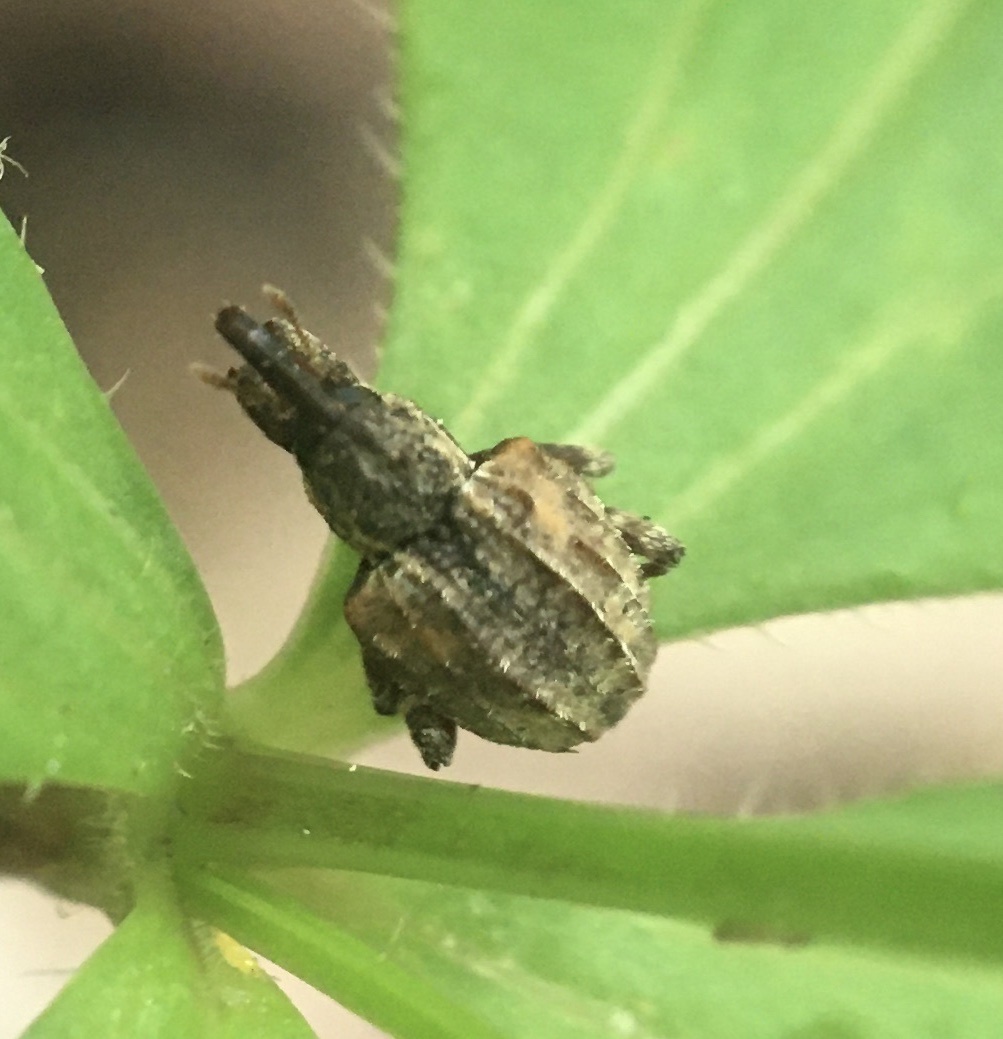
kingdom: Animalia
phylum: Arthropoda
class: Insecta
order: Coleoptera
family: Curculionidae
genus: Conotrachelus
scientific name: Conotrachelus anaglypticus
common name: Cambium curculio
